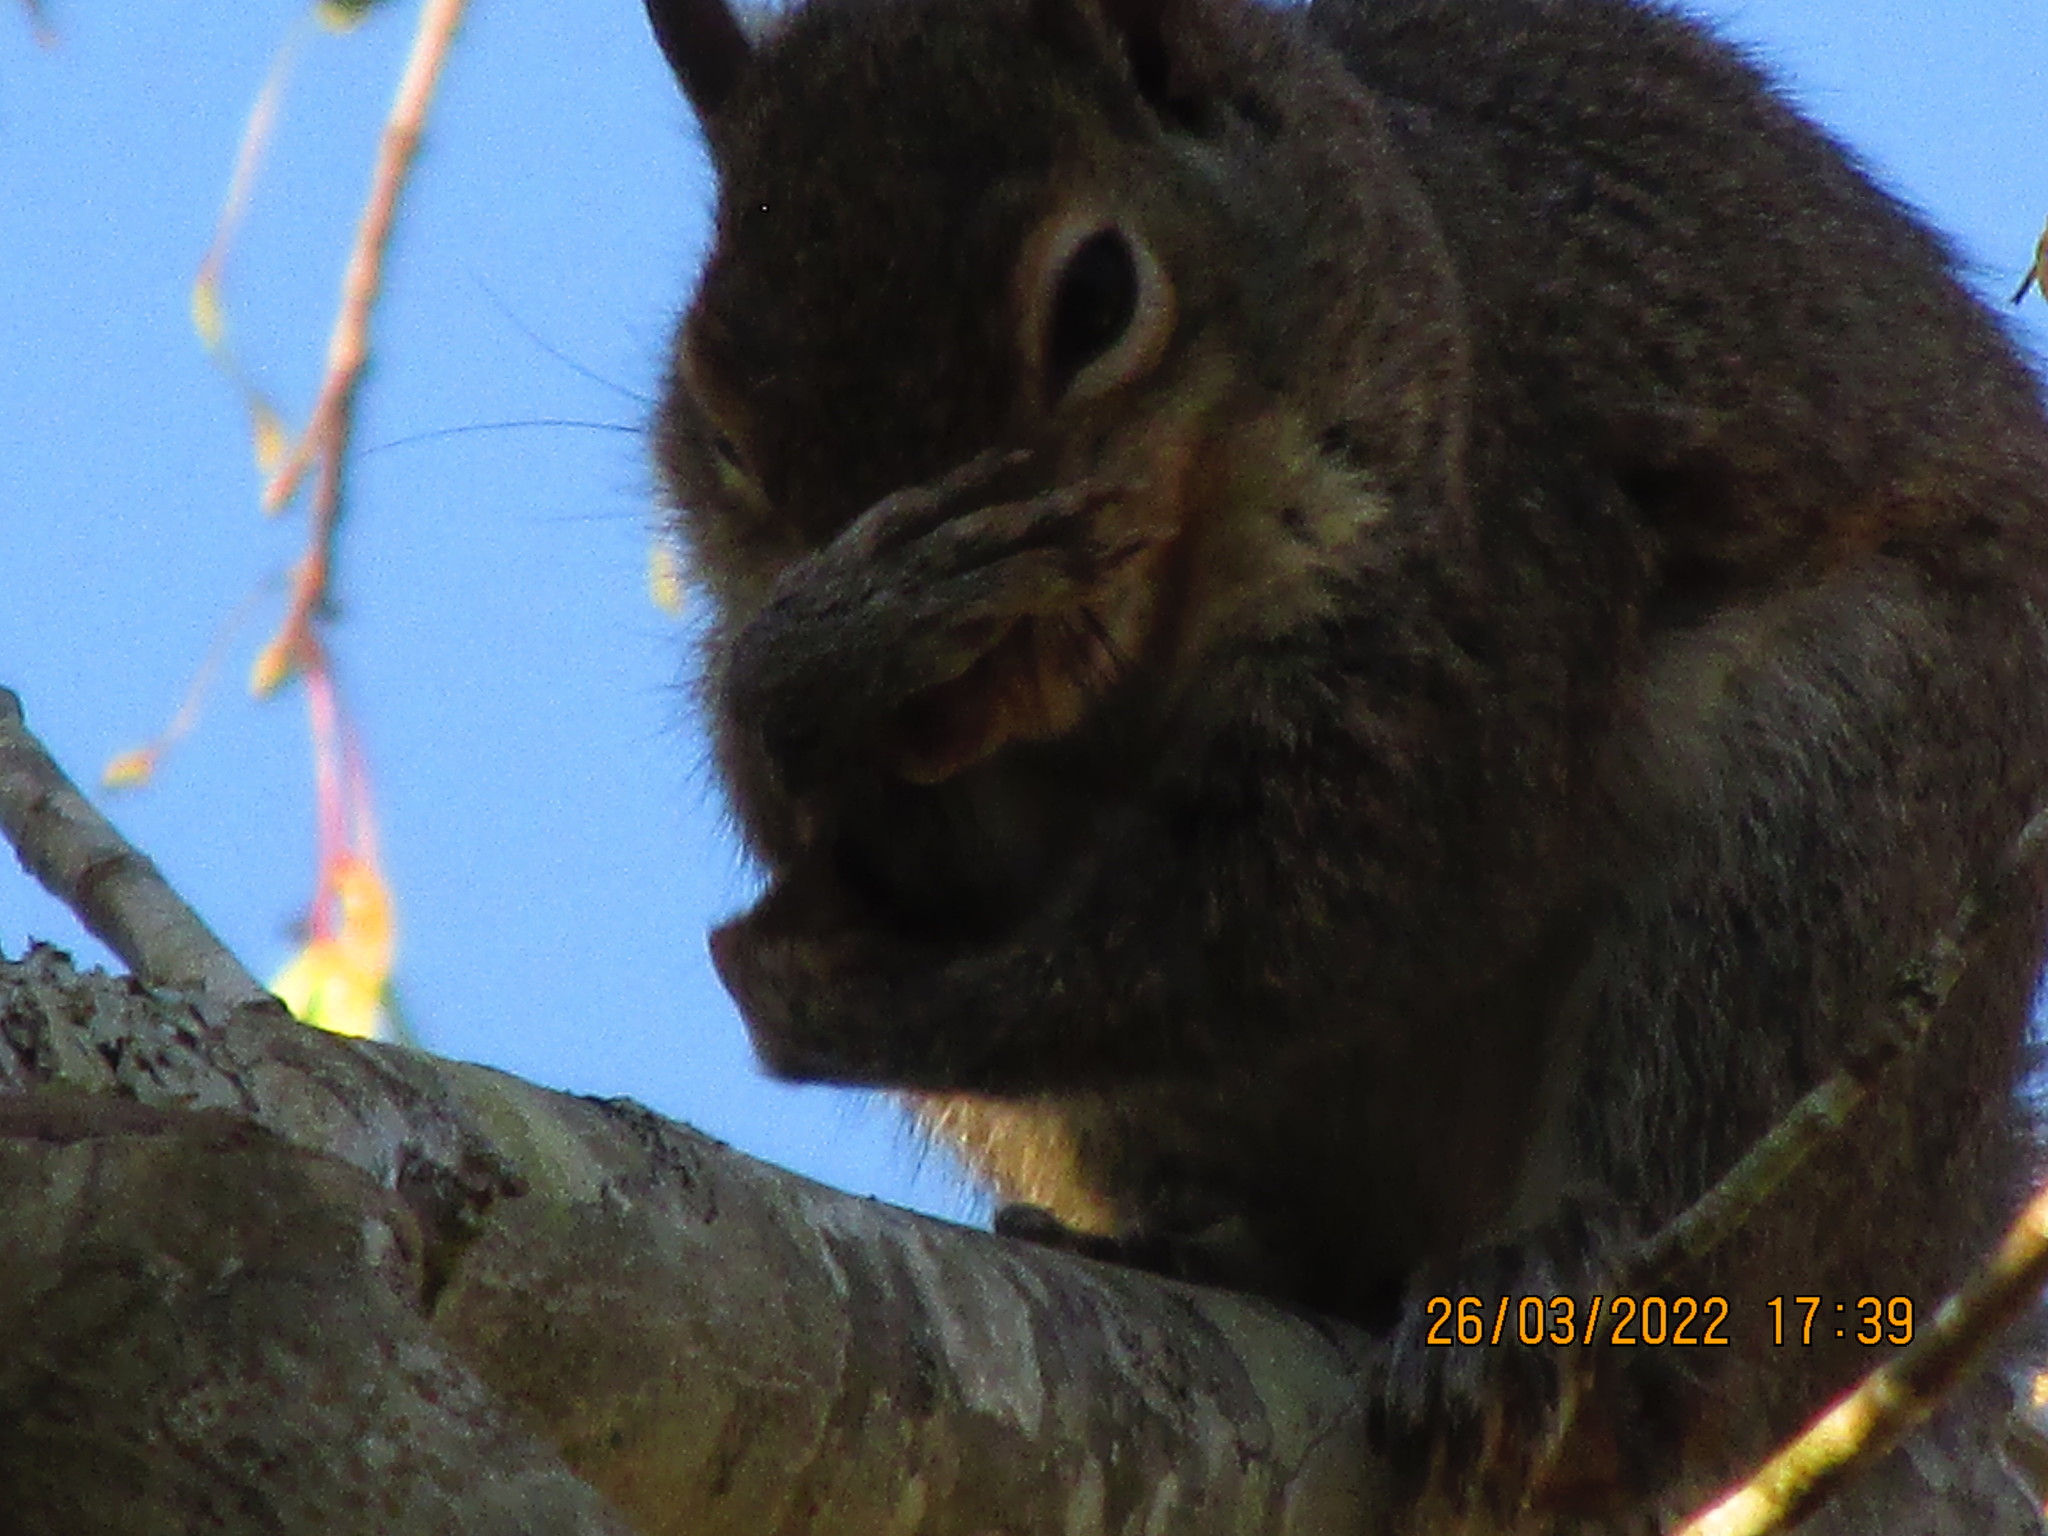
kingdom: Animalia
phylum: Chordata
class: Mammalia
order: Rodentia
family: Sciuridae
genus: Sciurus
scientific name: Sciurus carolinensis
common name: Eastern gray squirrel
